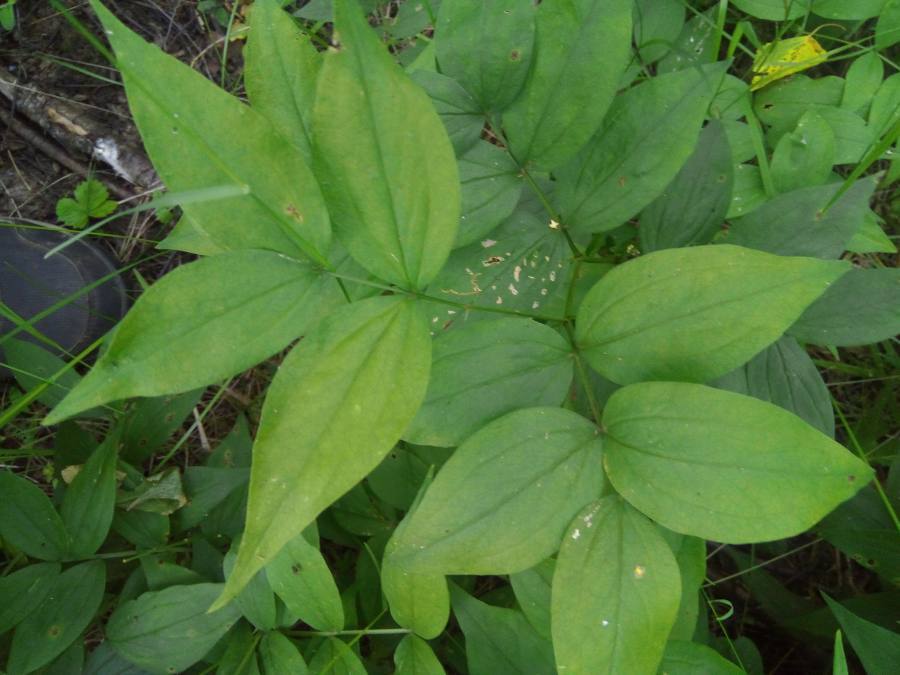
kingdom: Plantae
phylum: Tracheophyta
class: Magnoliopsida
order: Fabales
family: Fabaceae
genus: Lathyrus
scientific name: Lathyrus vernus
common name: Spring pea
